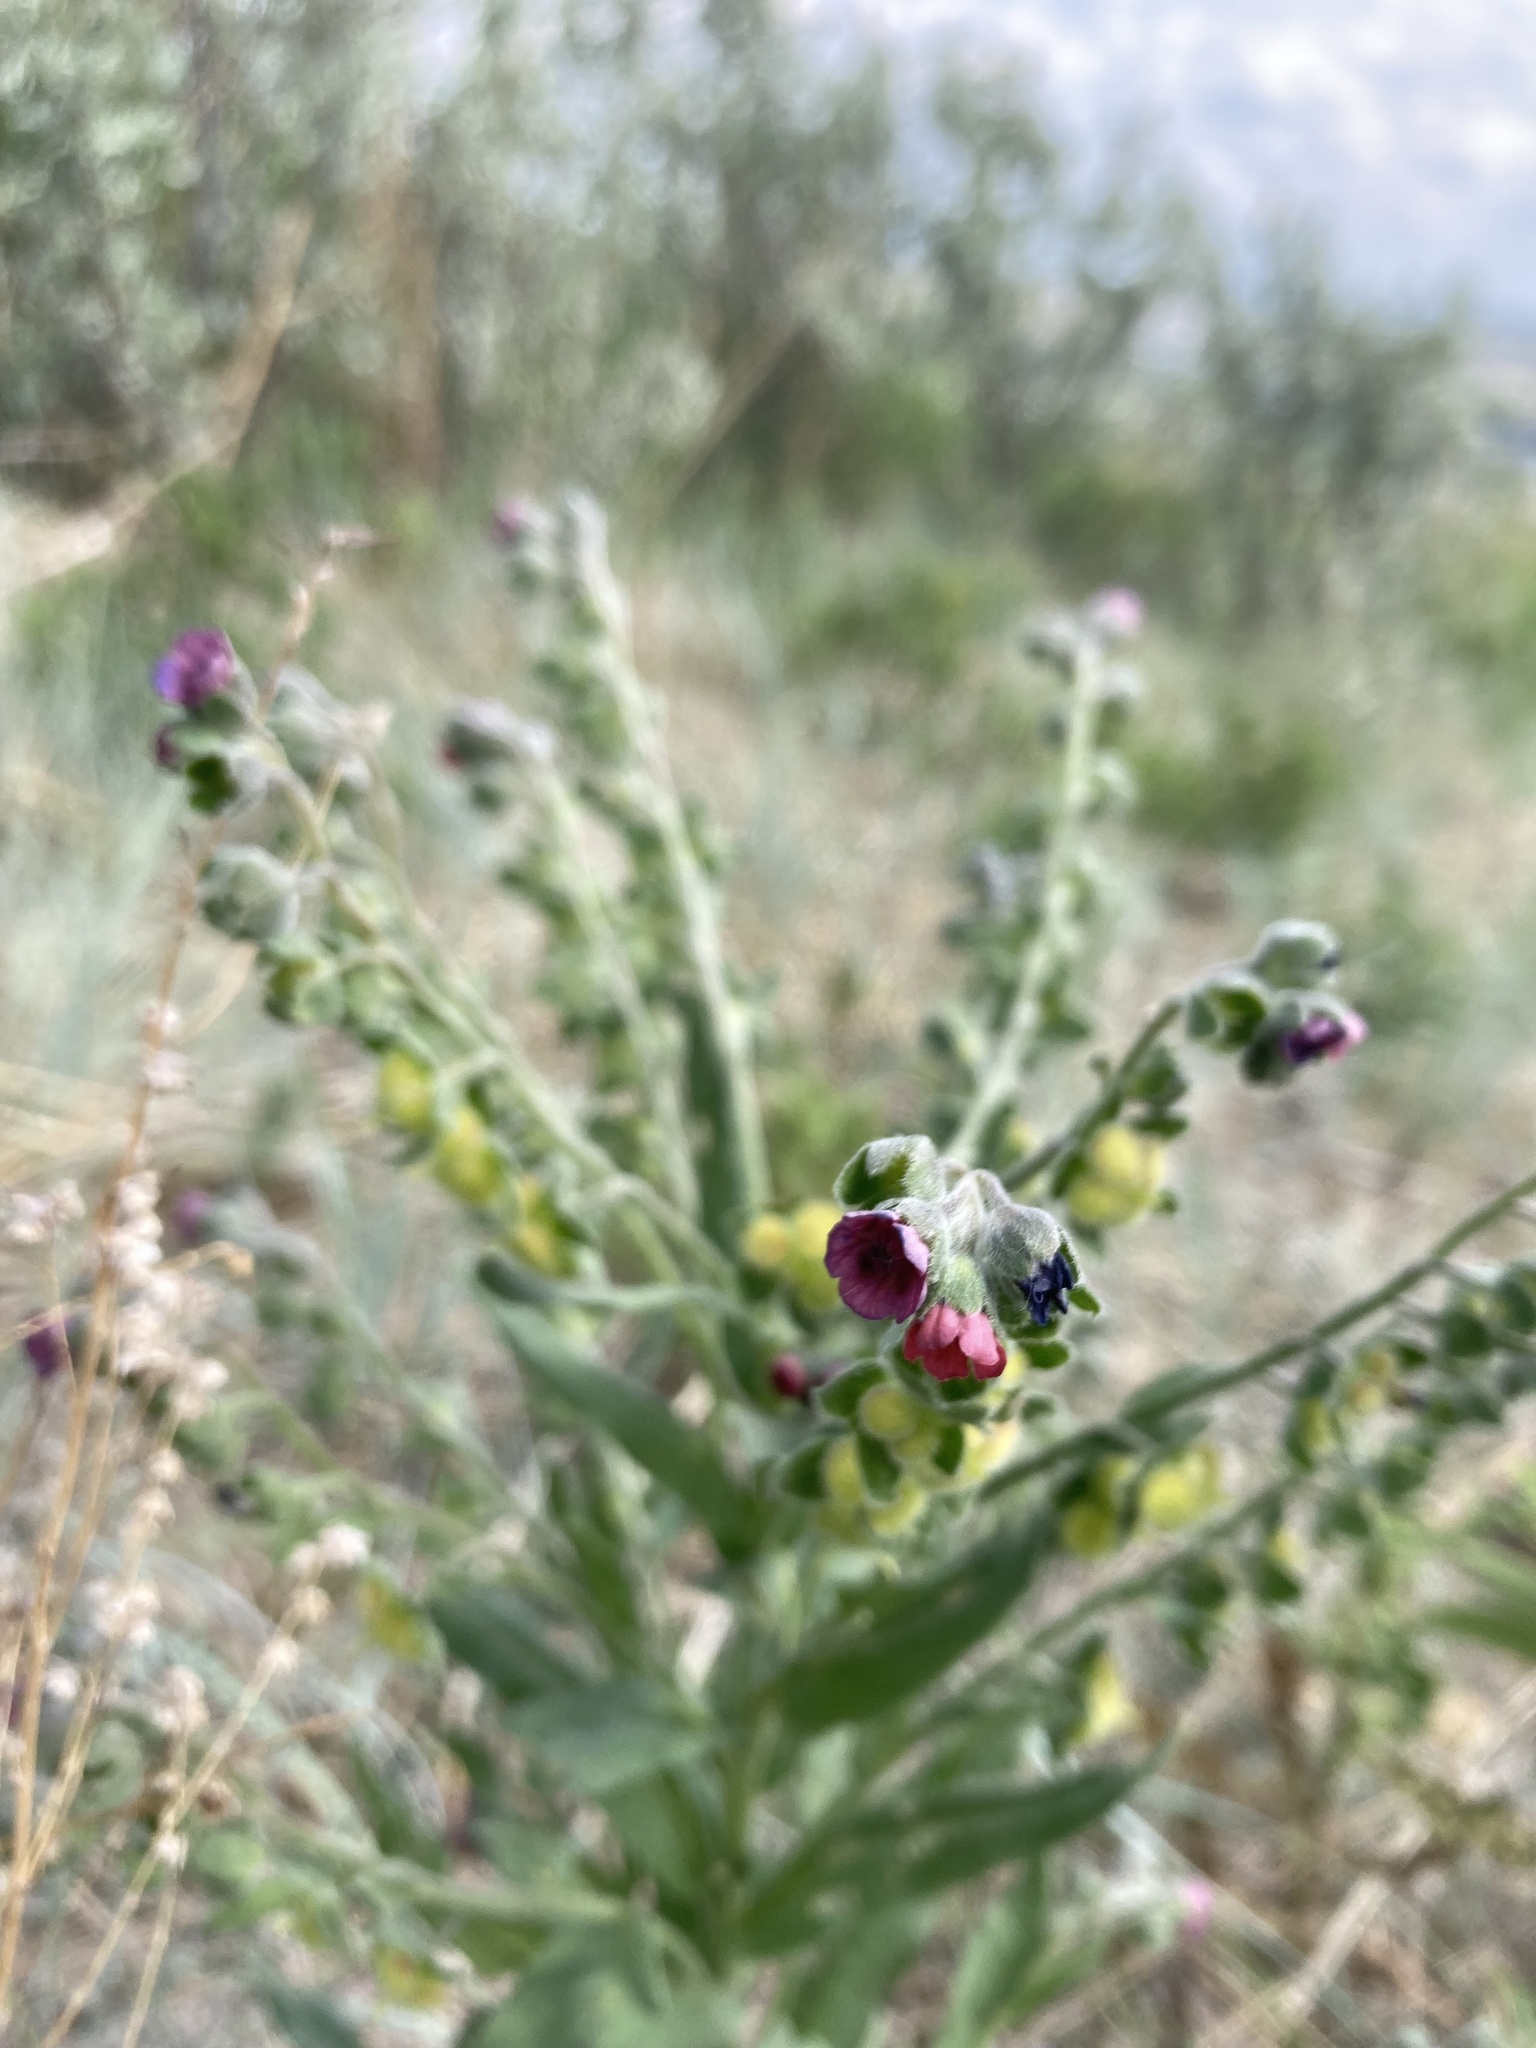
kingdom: Plantae
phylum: Tracheophyta
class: Magnoliopsida
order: Boraginales
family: Boraginaceae
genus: Cynoglossum
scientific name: Cynoglossum officinale
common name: Hound's-tongue
